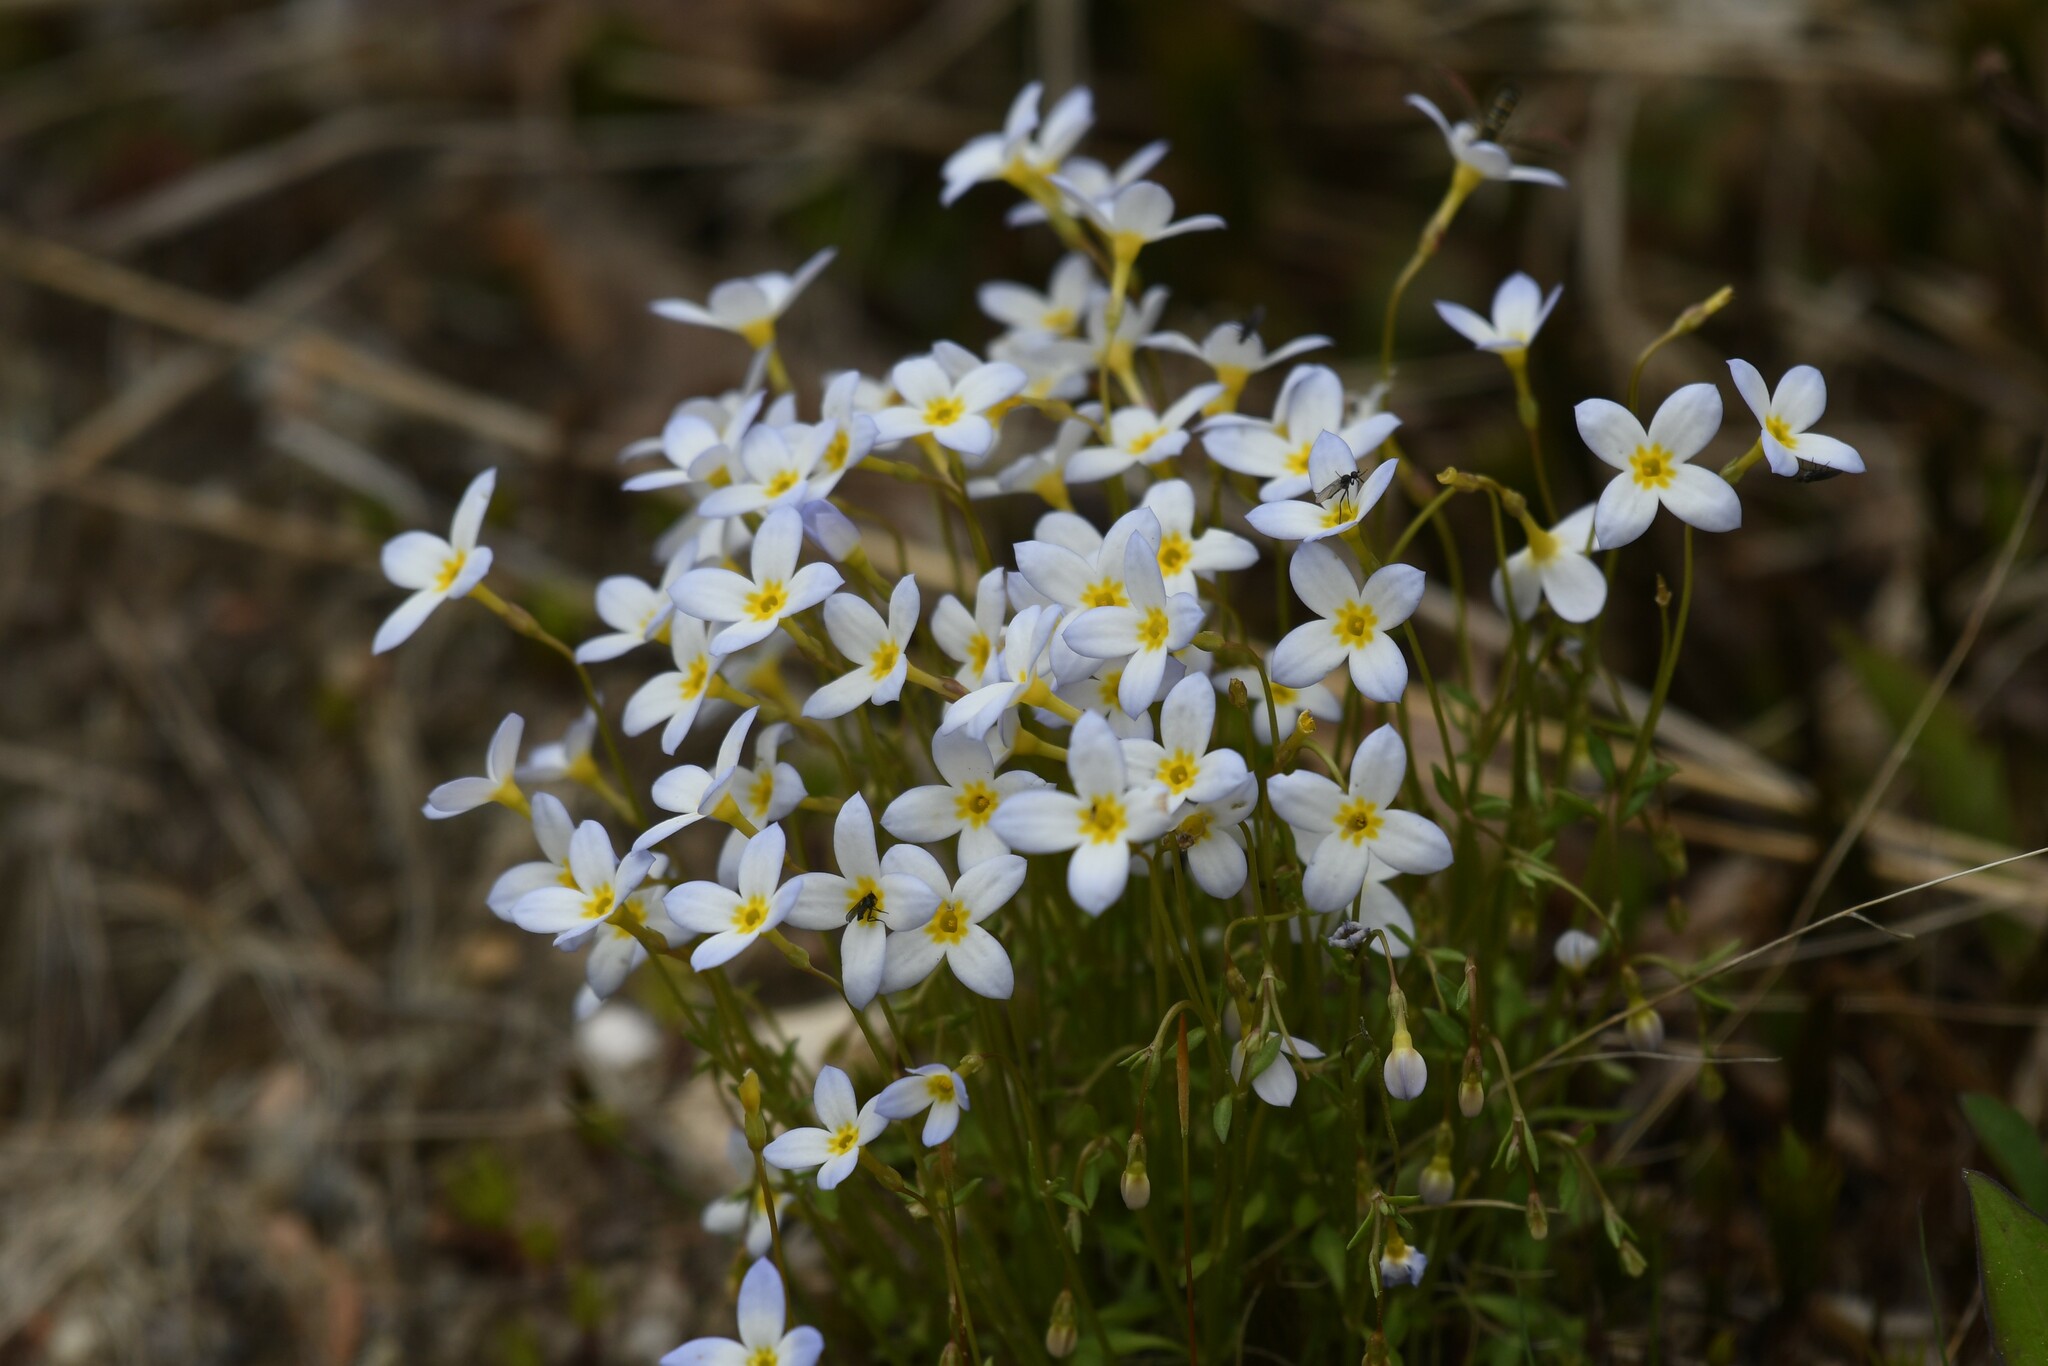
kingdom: Plantae
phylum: Tracheophyta
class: Magnoliopsida
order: Gentianales
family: Rubiaceae
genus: Houstonia
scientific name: Houstonia caerulea
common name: Bluets
